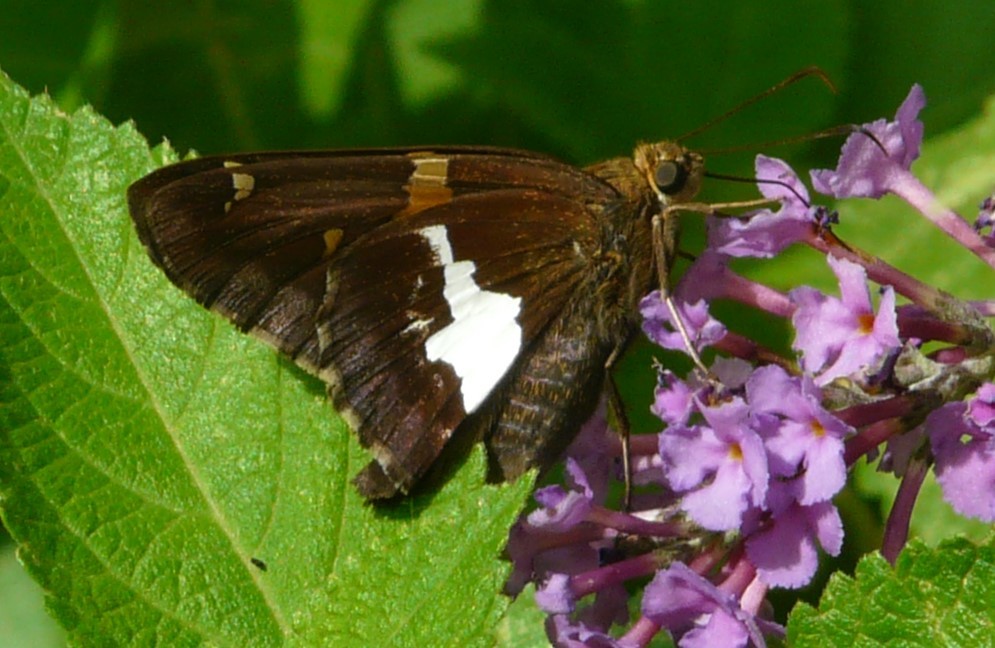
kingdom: Animalia
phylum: Arthropoda
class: Insecta
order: Lepidoptera
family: Hesperiidae
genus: Epargyreus
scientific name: Epargyreus clarus
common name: Silver-spotted skipper
